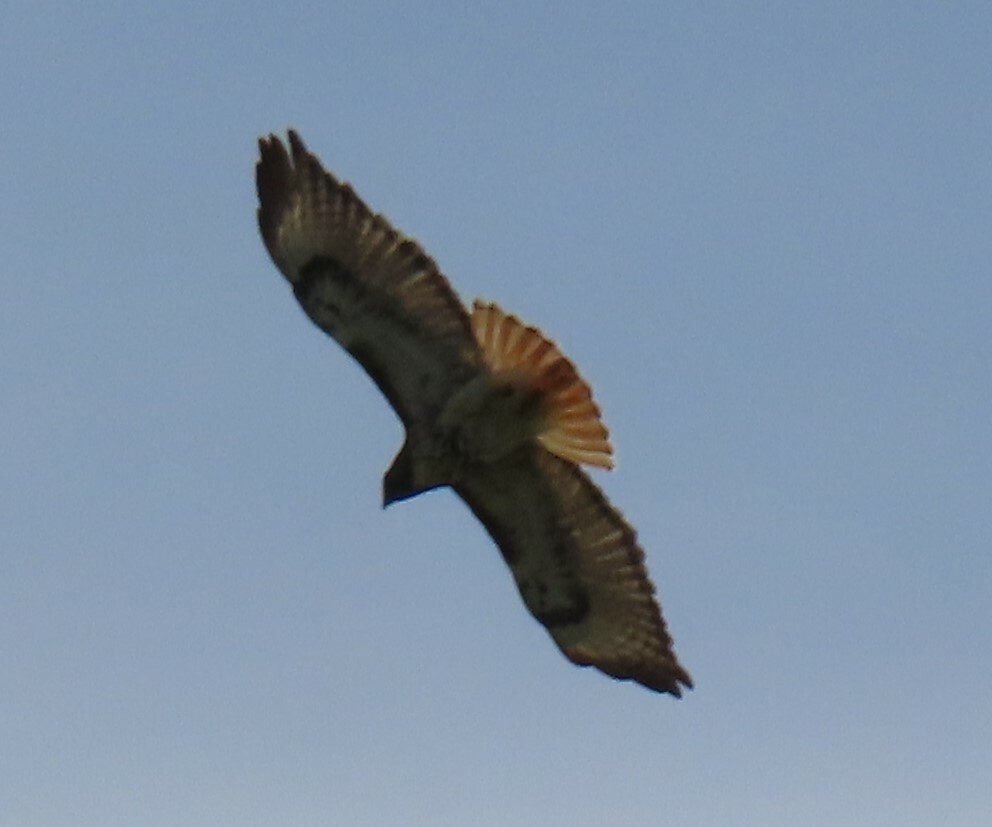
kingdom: Animalia
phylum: Chordata
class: Aves
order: Accipitriformes
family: Accipitridae
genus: Buteo
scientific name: Buteo jamaicensis
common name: Red-tailed hawk
